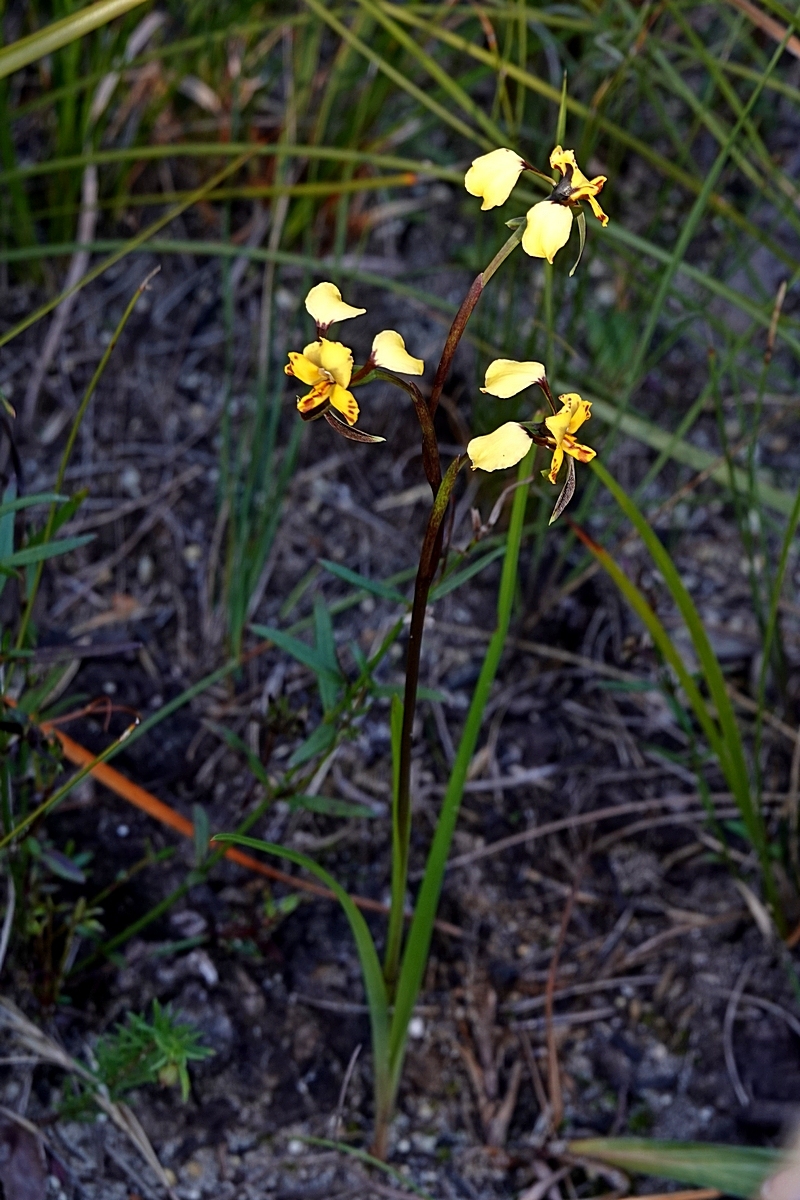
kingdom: Plantae
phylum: Tracheophyta
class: Liliopsida
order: Asparagales
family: Orchidaceae
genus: Diuris
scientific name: Diuris maculata
